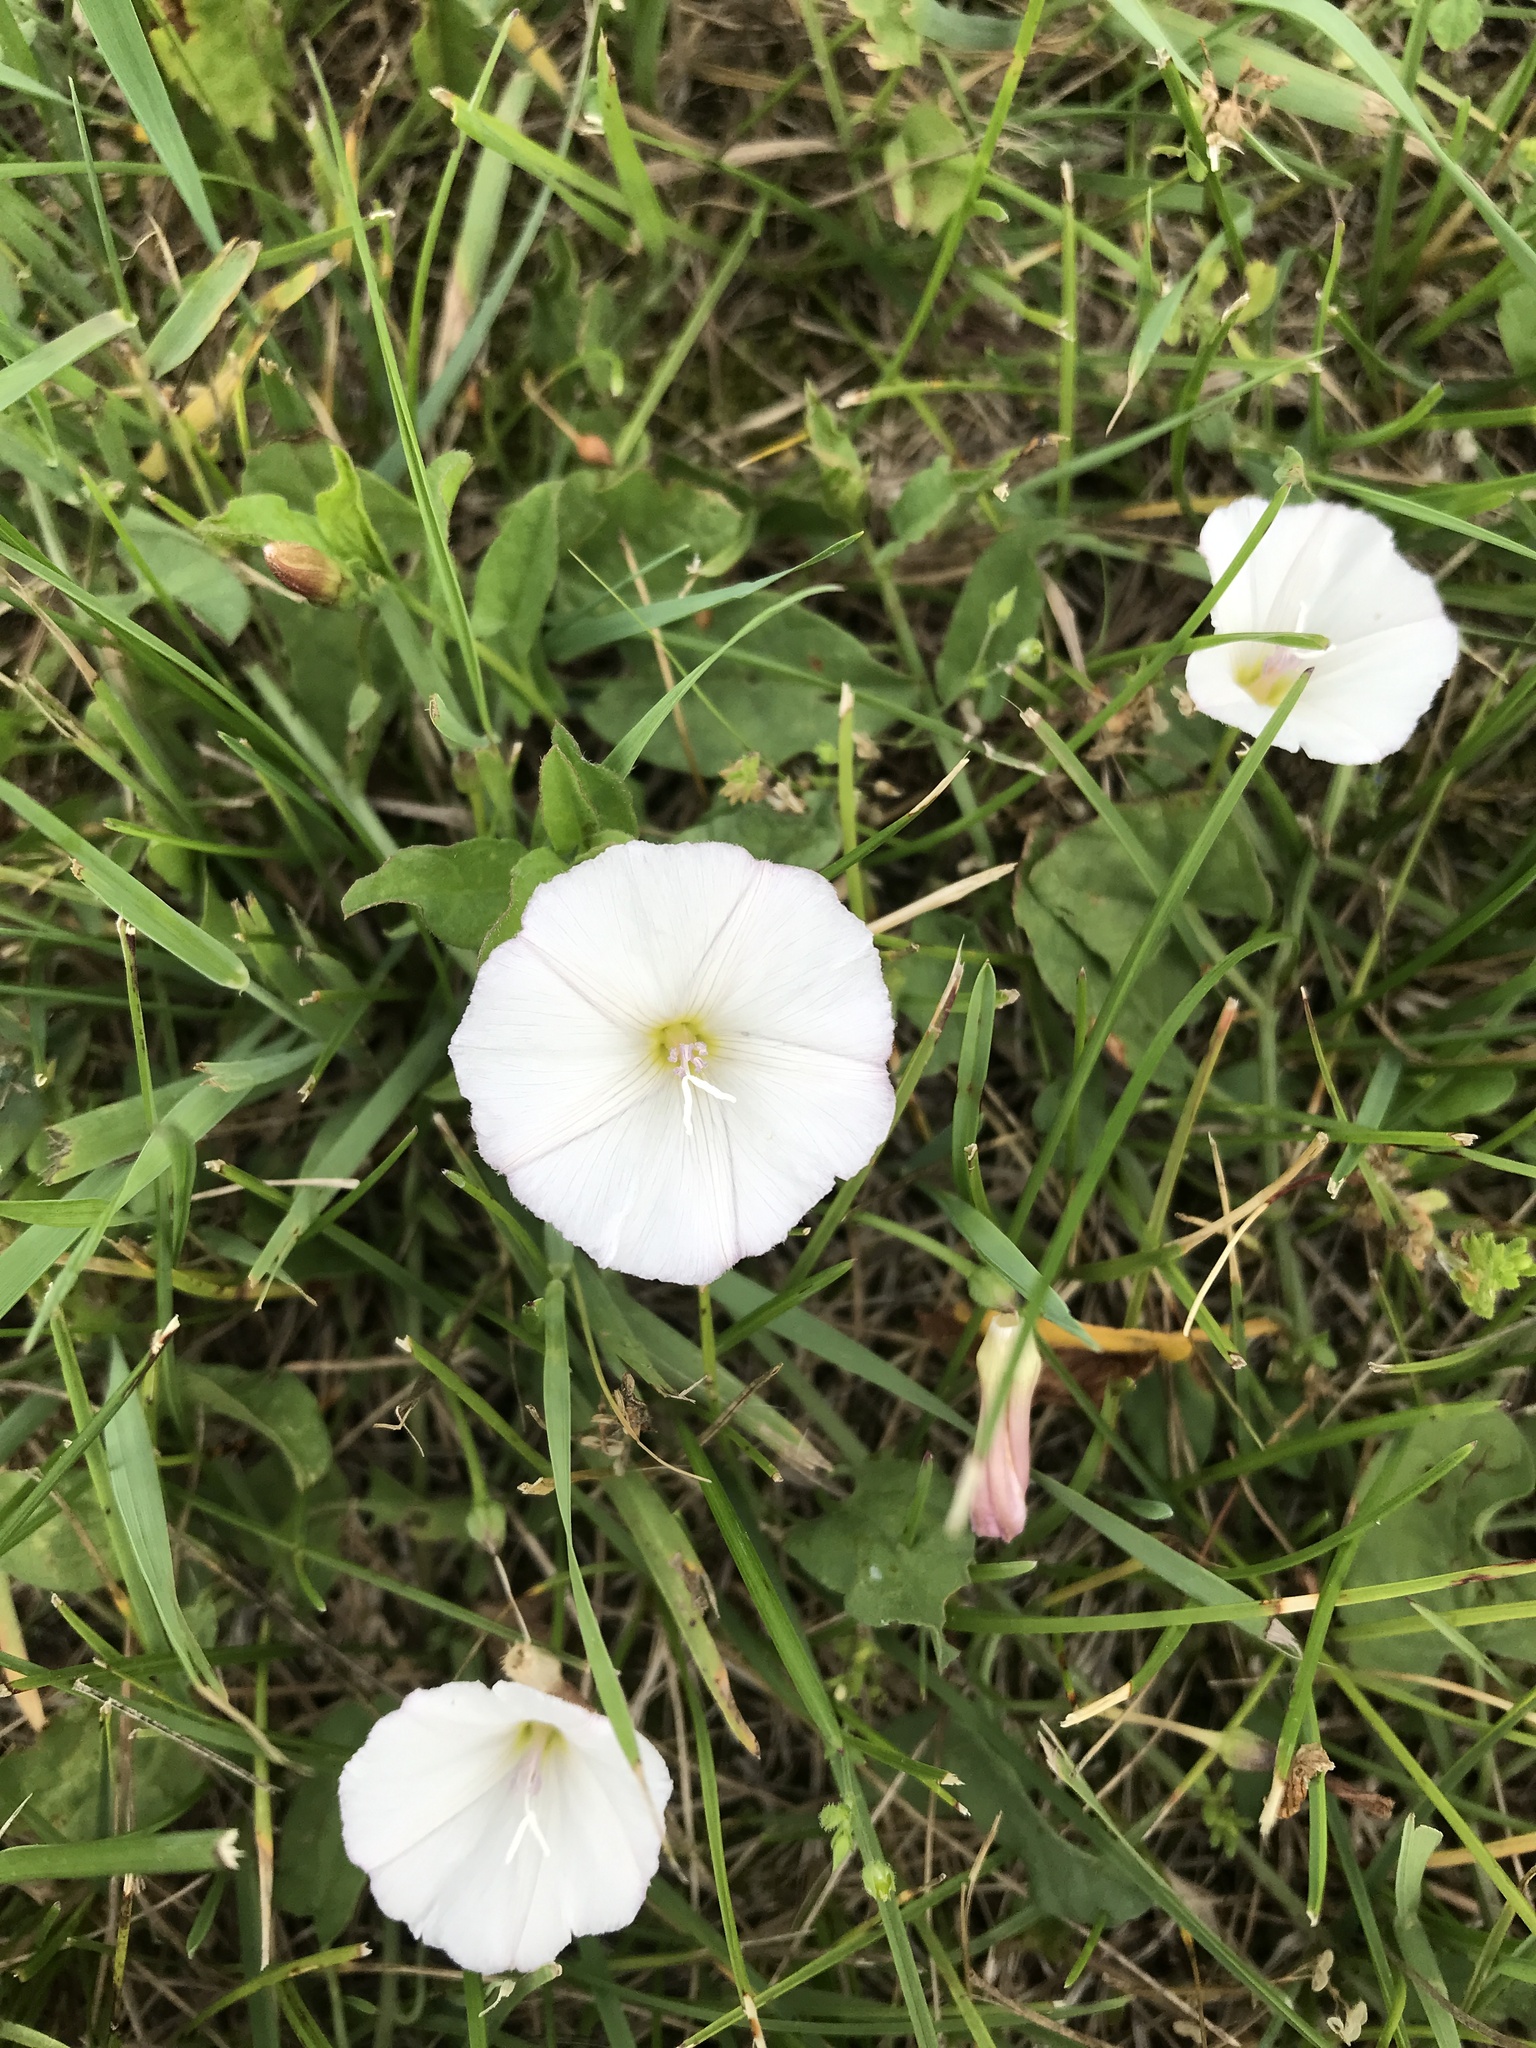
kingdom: Plantae
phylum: Tracheophyta
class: Magnoliopsida
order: Solanales
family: Convolvulaceae
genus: Convolvulus
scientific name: Convolvulus arvensis
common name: Field bindweed
